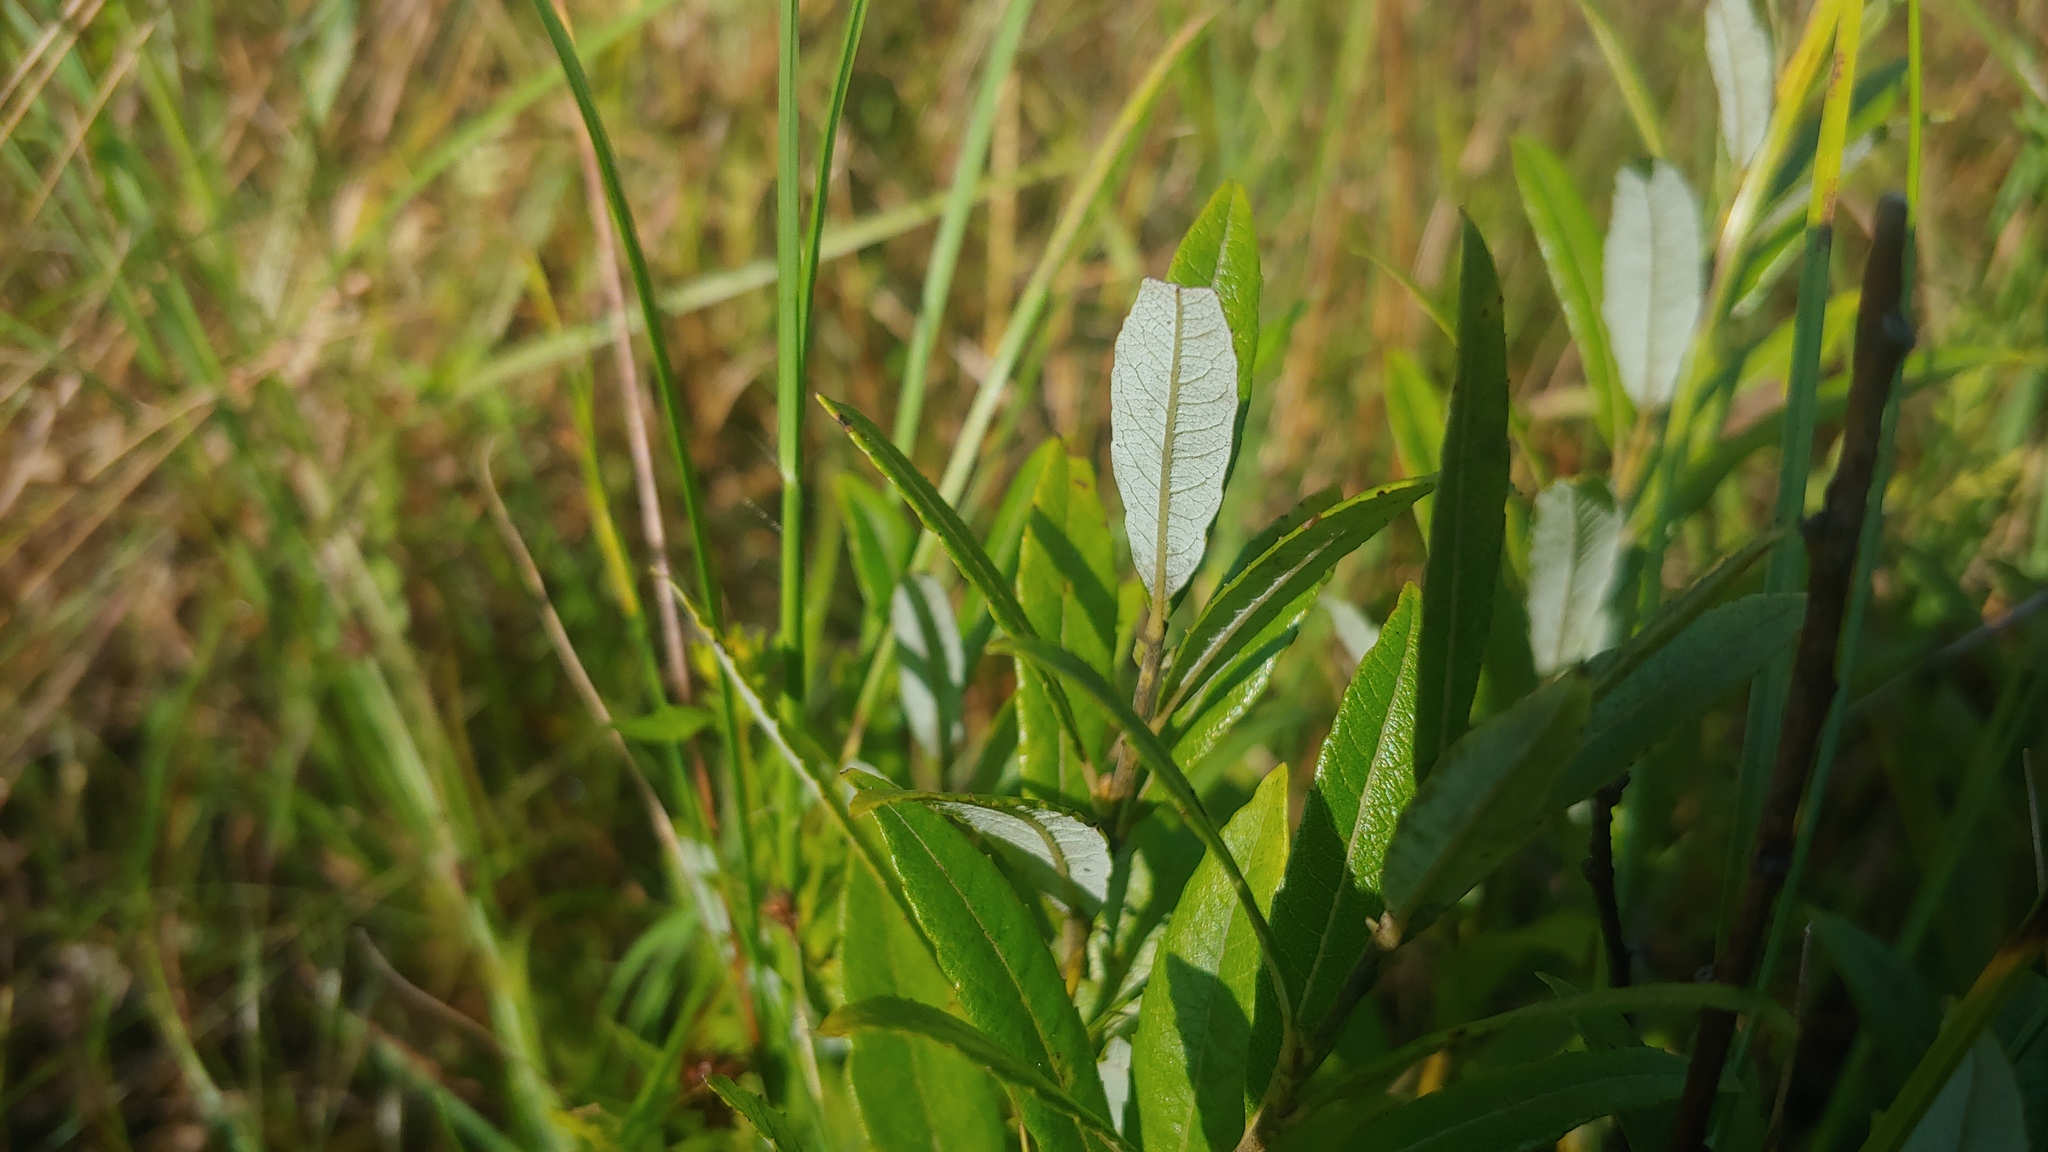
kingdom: Plantae
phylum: Tracheophyta
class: Magnoliopsida
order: Malpighiales
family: Salicaceae
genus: Salix
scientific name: Salix humilis
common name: Prairie willow
